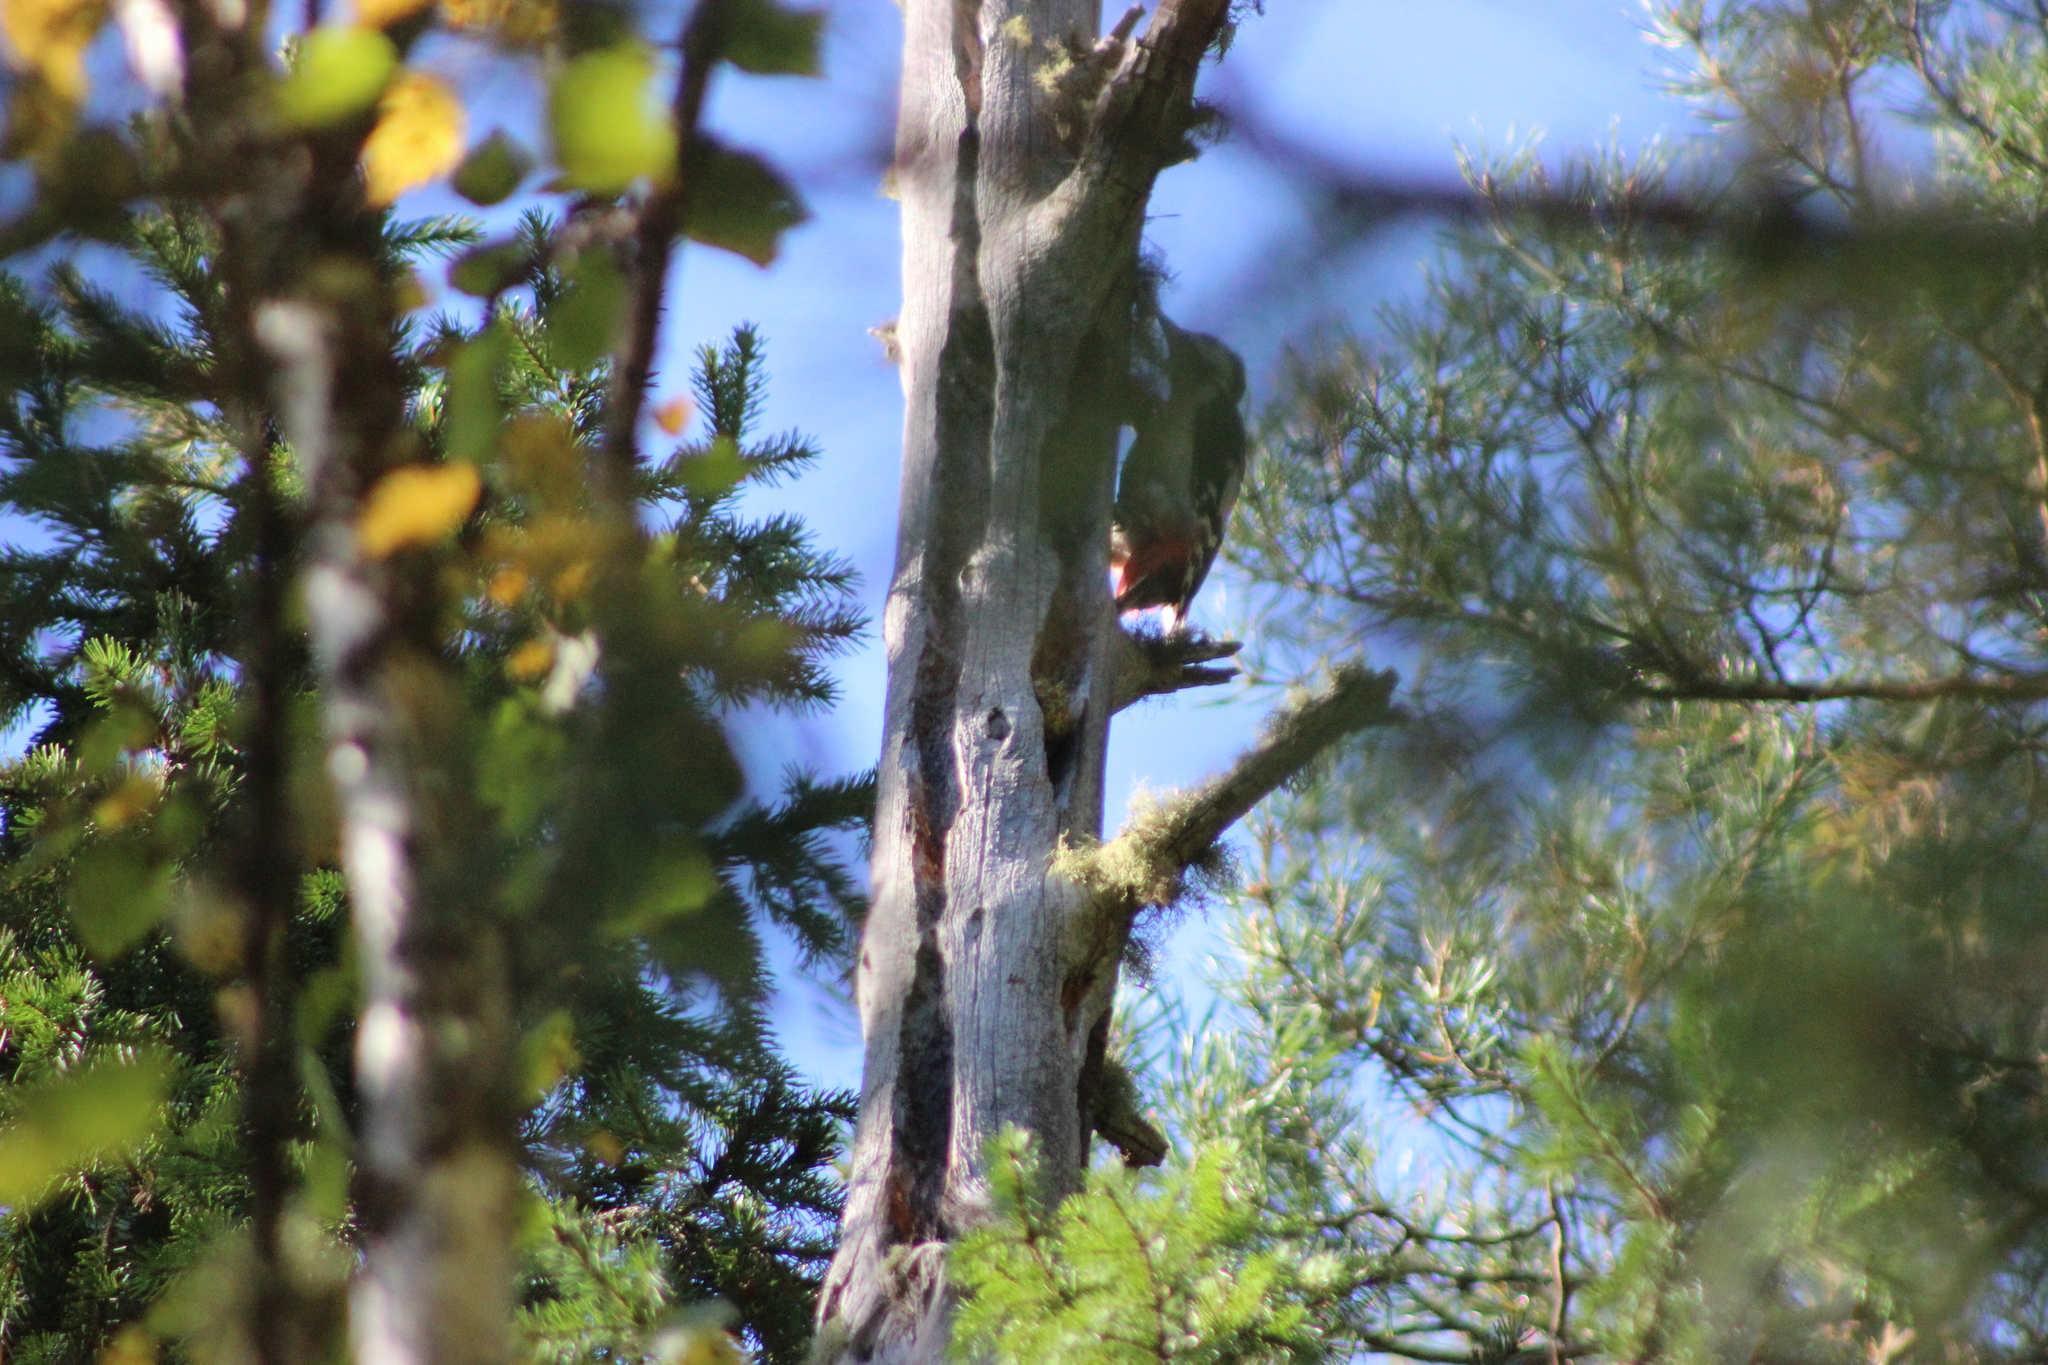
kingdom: Animalia
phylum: Chordata
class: Aves
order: Piciformes
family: Picidae
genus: Dendrocopos
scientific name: Dendrocopos major
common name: Great spotted woodpecker
